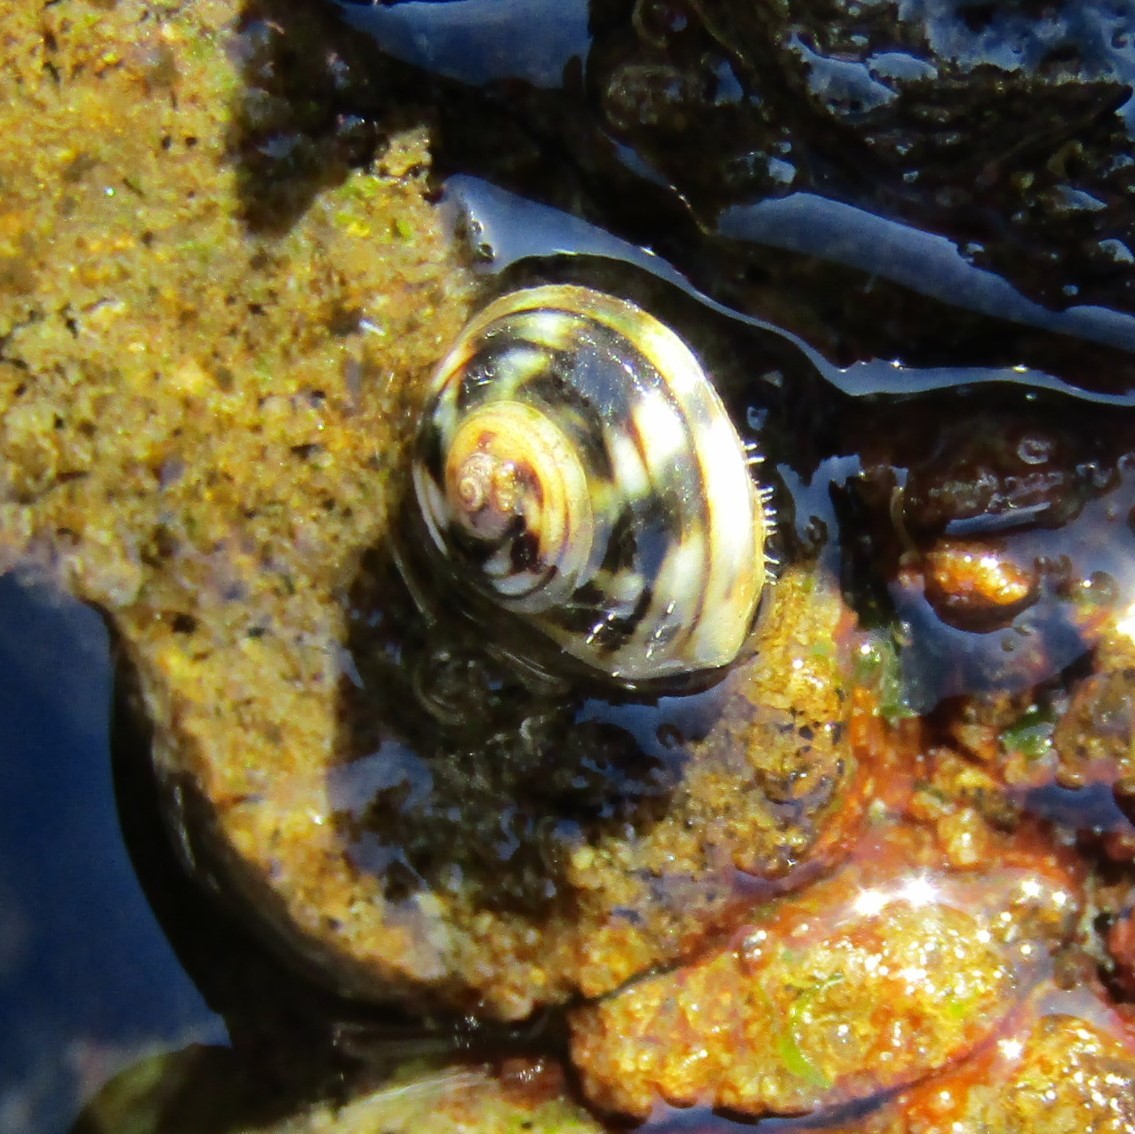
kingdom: Animalia
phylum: Mollusca
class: Gastropoda
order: Littorinimorpha
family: Littorinidae
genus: Risellopsis
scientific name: Risellopsis varia
